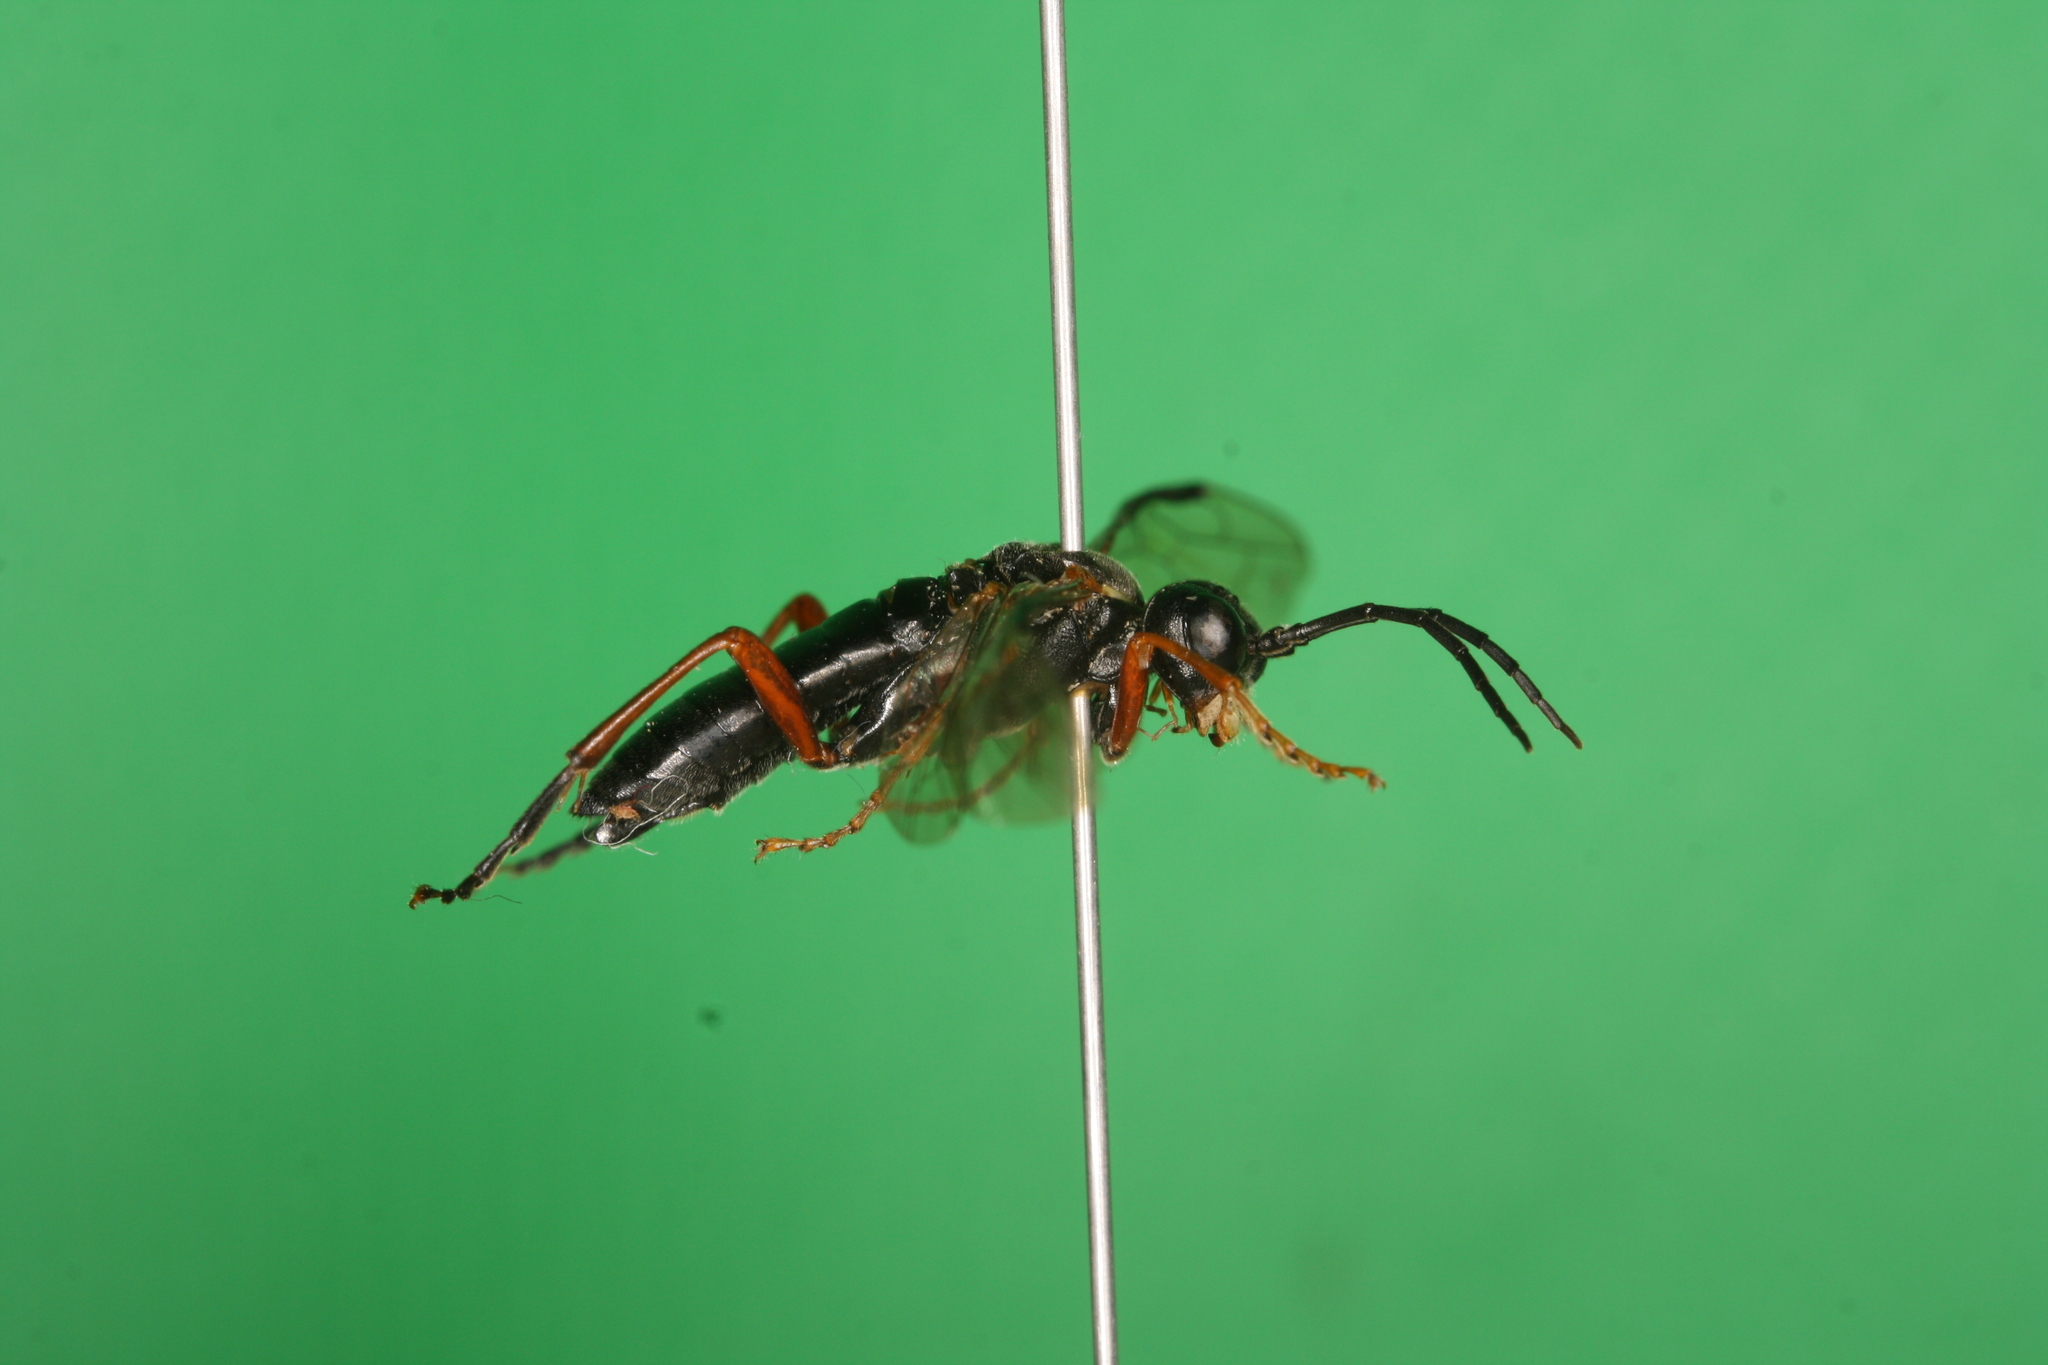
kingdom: Animalia
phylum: Arthropoda
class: Insecta
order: Hymenoptera
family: Tenthredinidae
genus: Tenthredo
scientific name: Tenthredo atra
